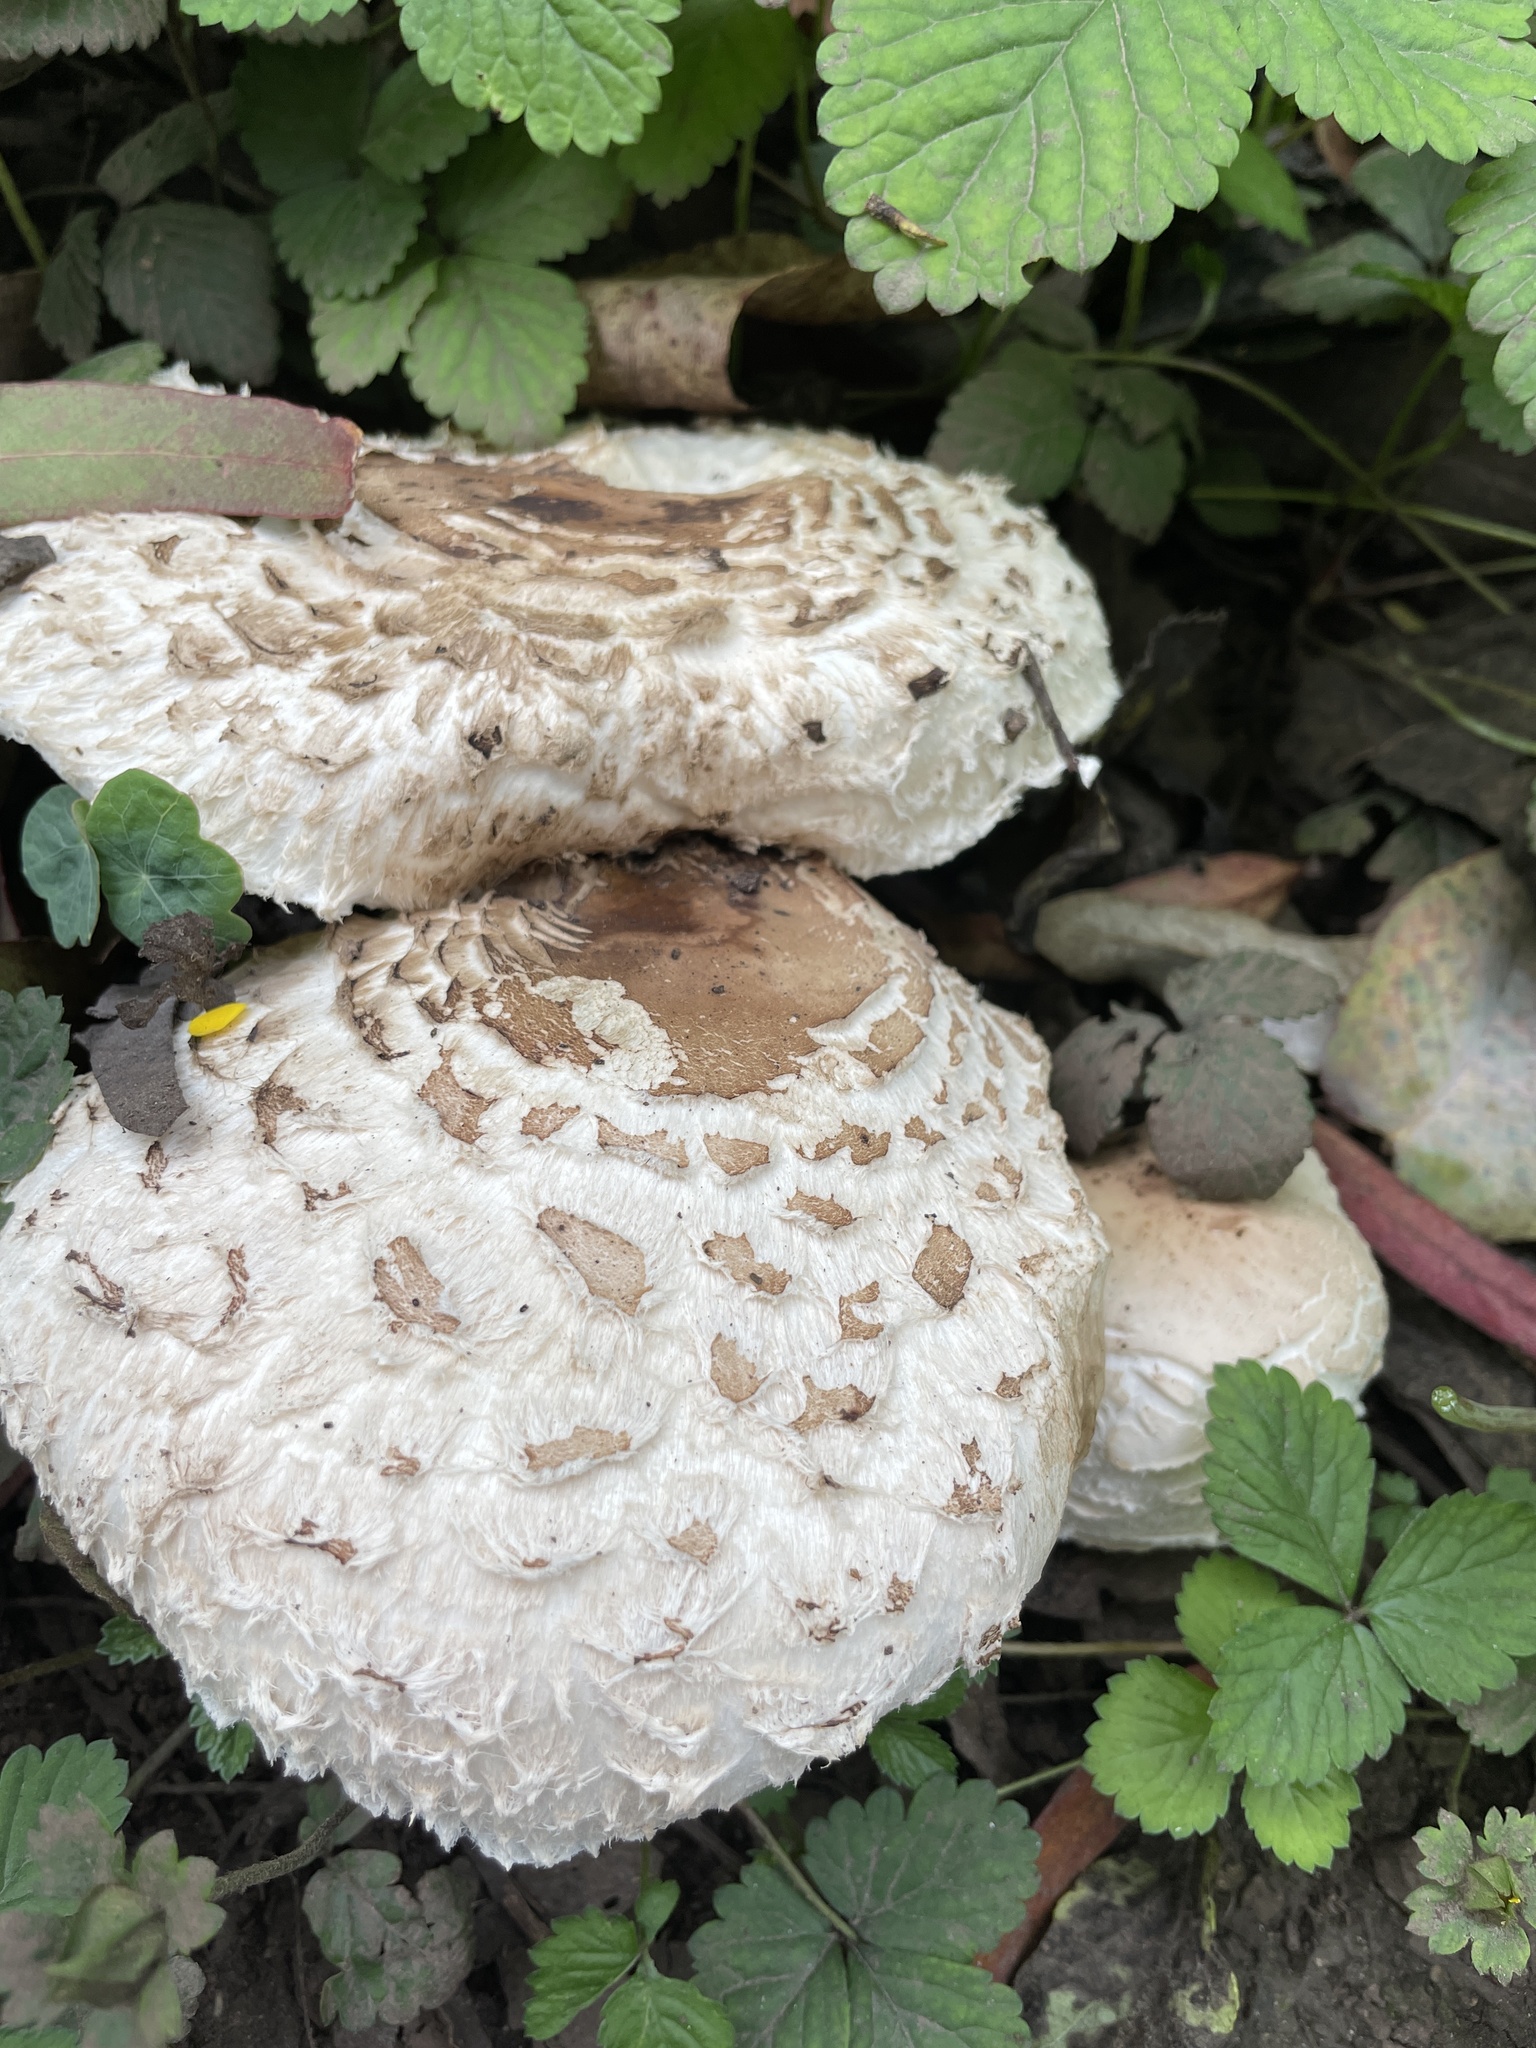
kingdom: Fungi
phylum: Basidiomycota
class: Agaricomycetes
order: Agaricales
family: Agaricaceae
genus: Chlorophyllum
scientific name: Chlorophyllum brunneum
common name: Brown parasol
